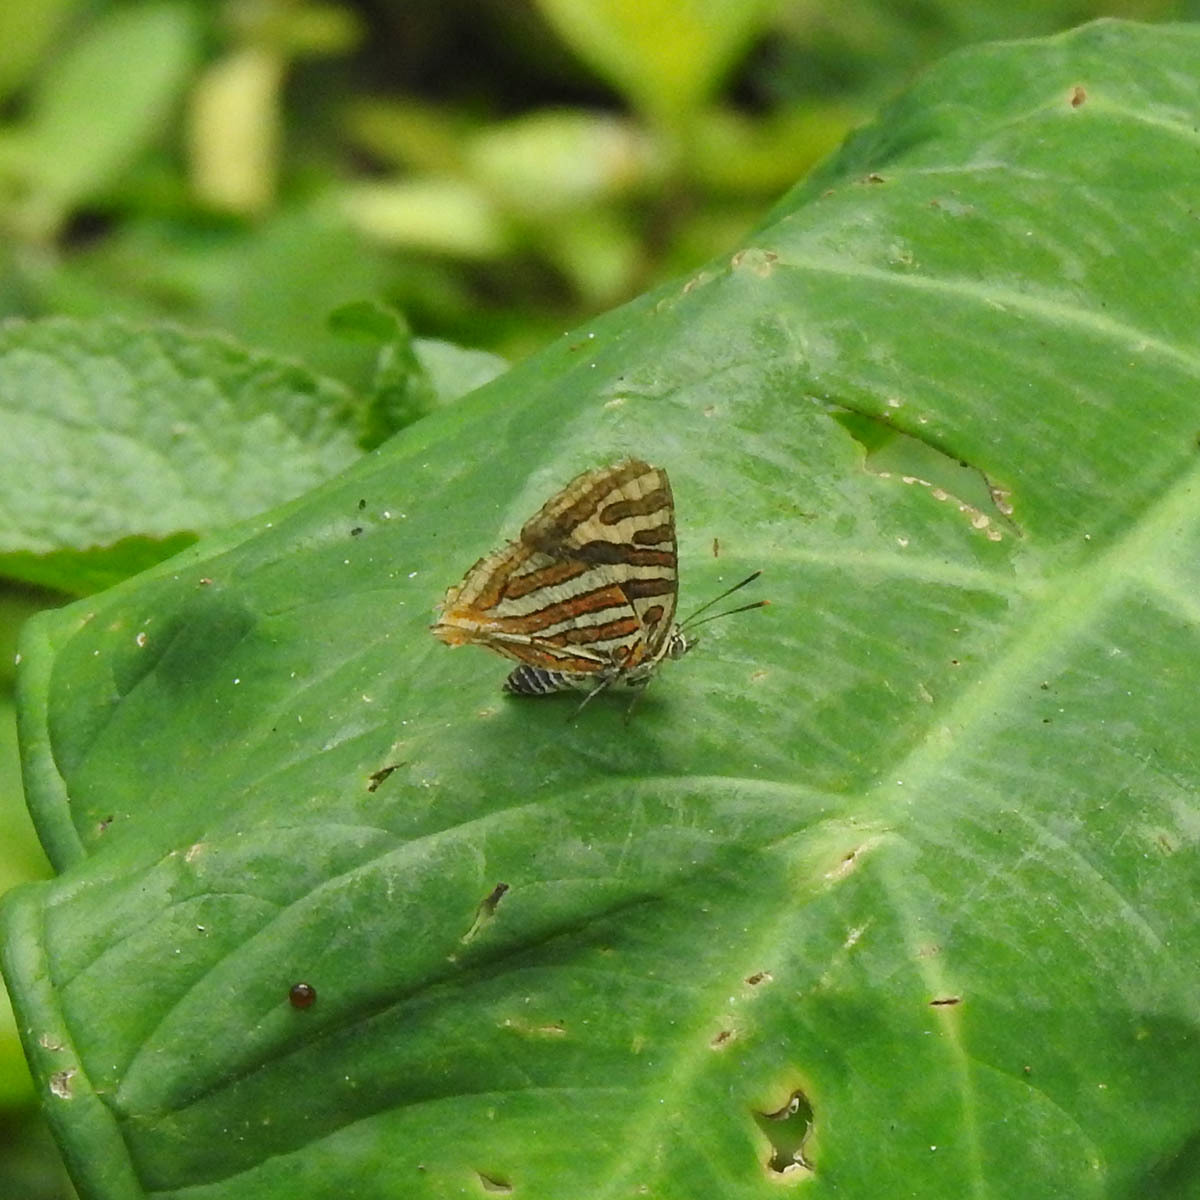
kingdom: Animalia
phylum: Arthropoda
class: Insecta
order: Lepidoptera
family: Lycaenidae
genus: Cigaritis
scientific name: Cigaritis vulcanus
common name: Common silverline
